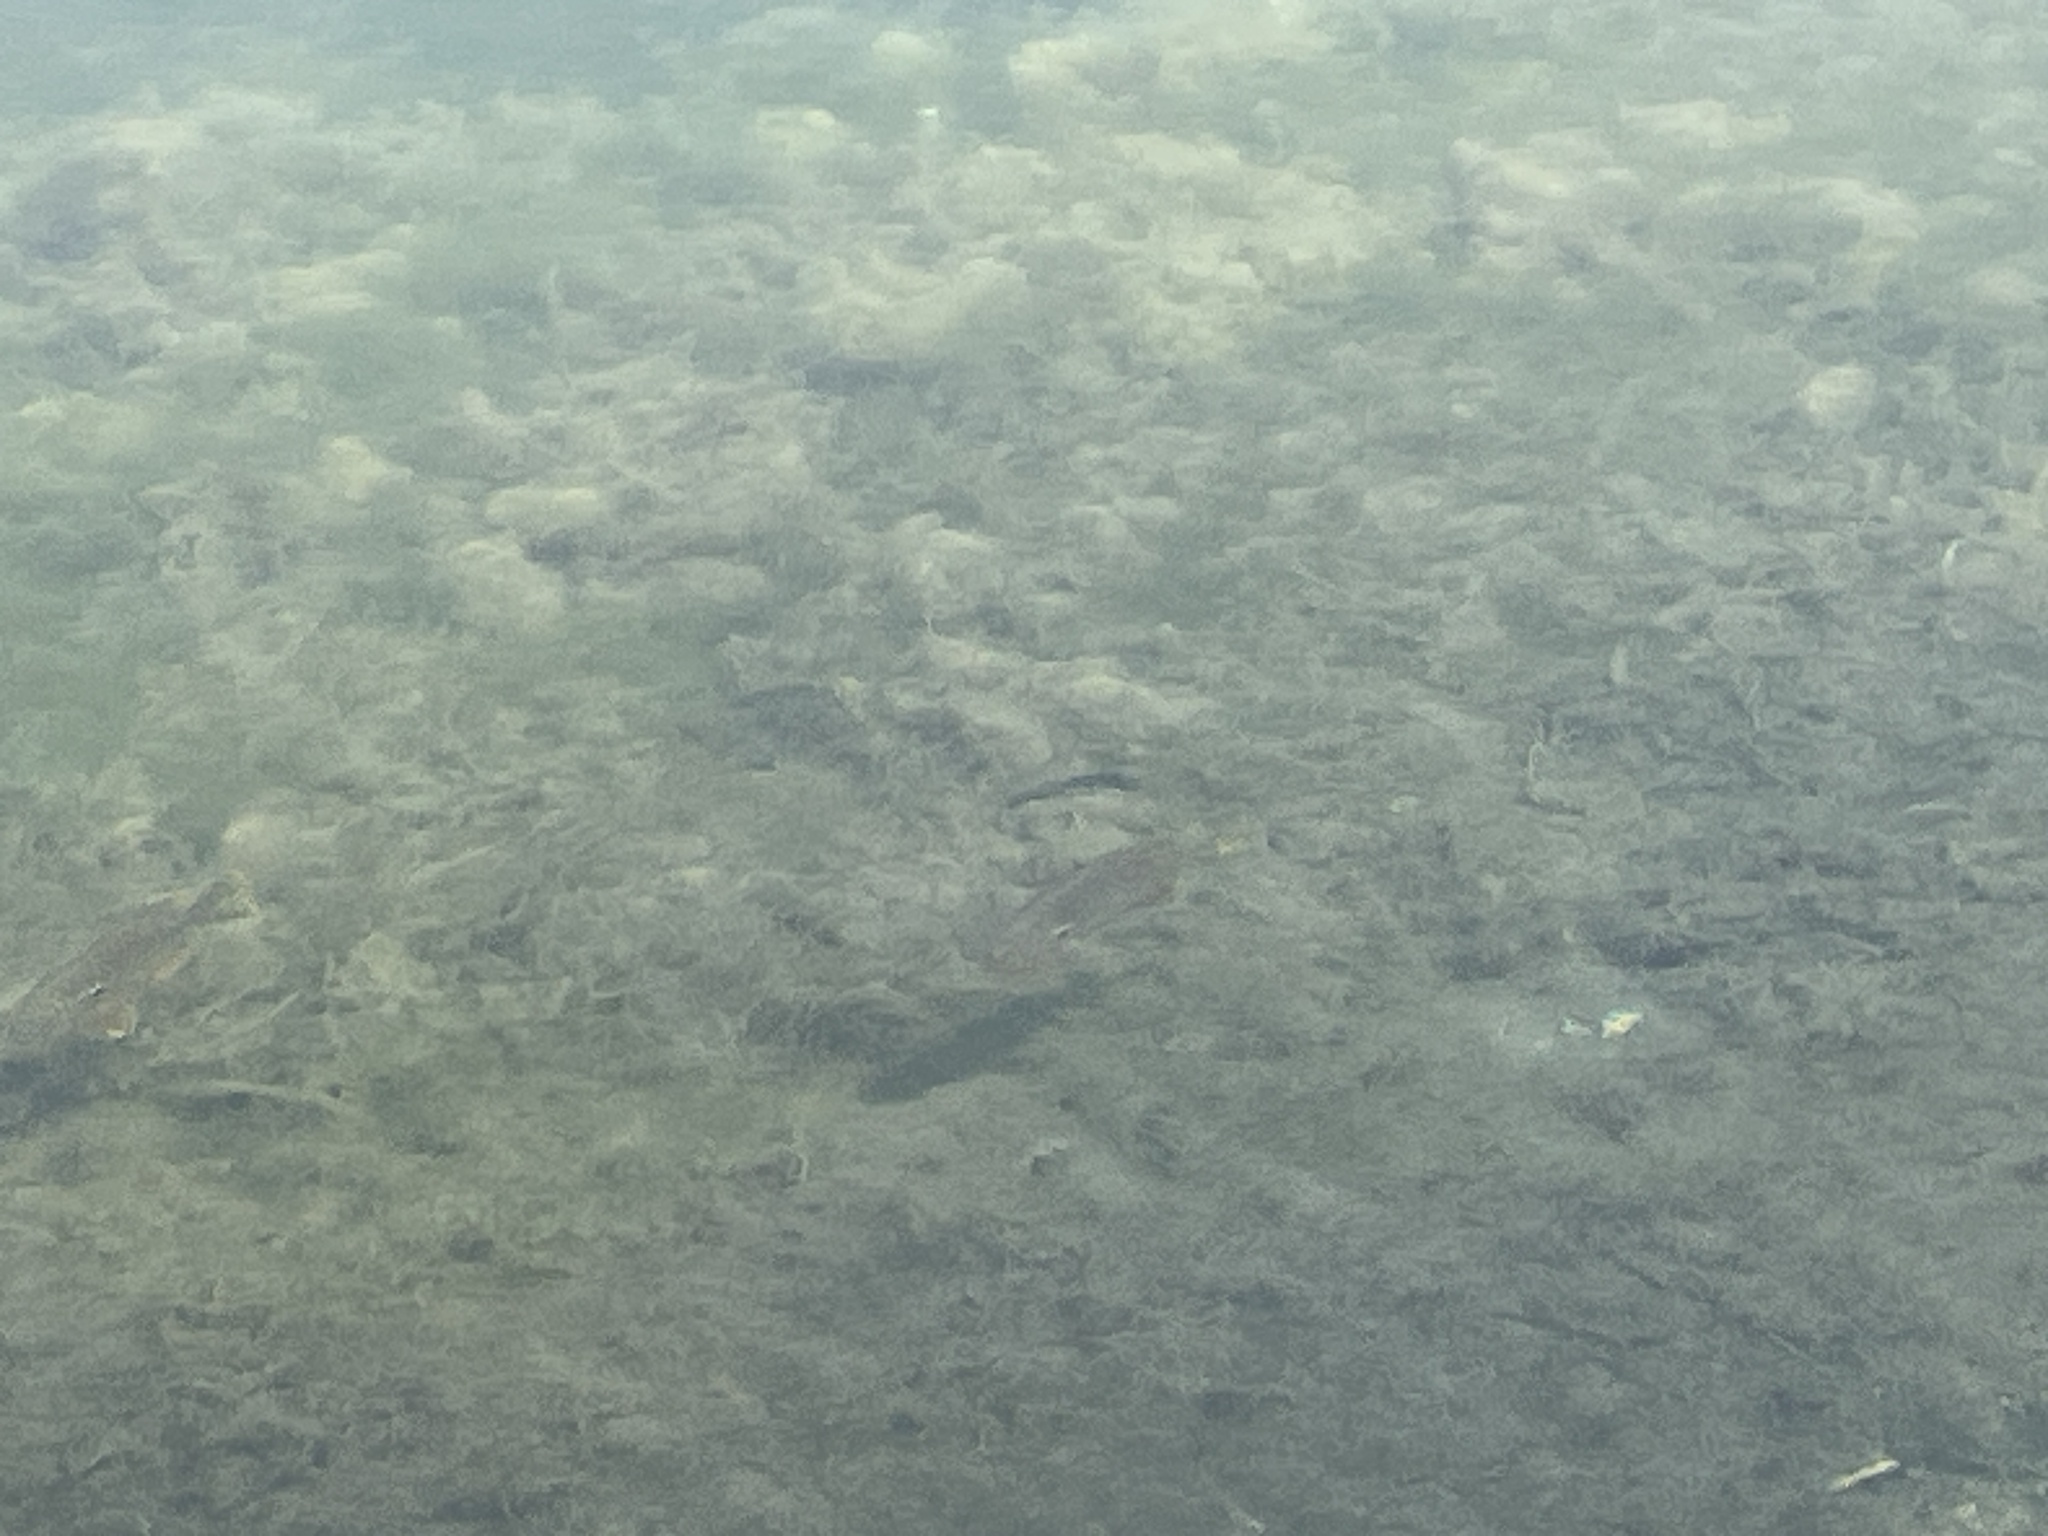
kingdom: Animalia
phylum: Chordata
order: Perciformes
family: Centrarchidae
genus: Lepomis
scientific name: Lepomis
